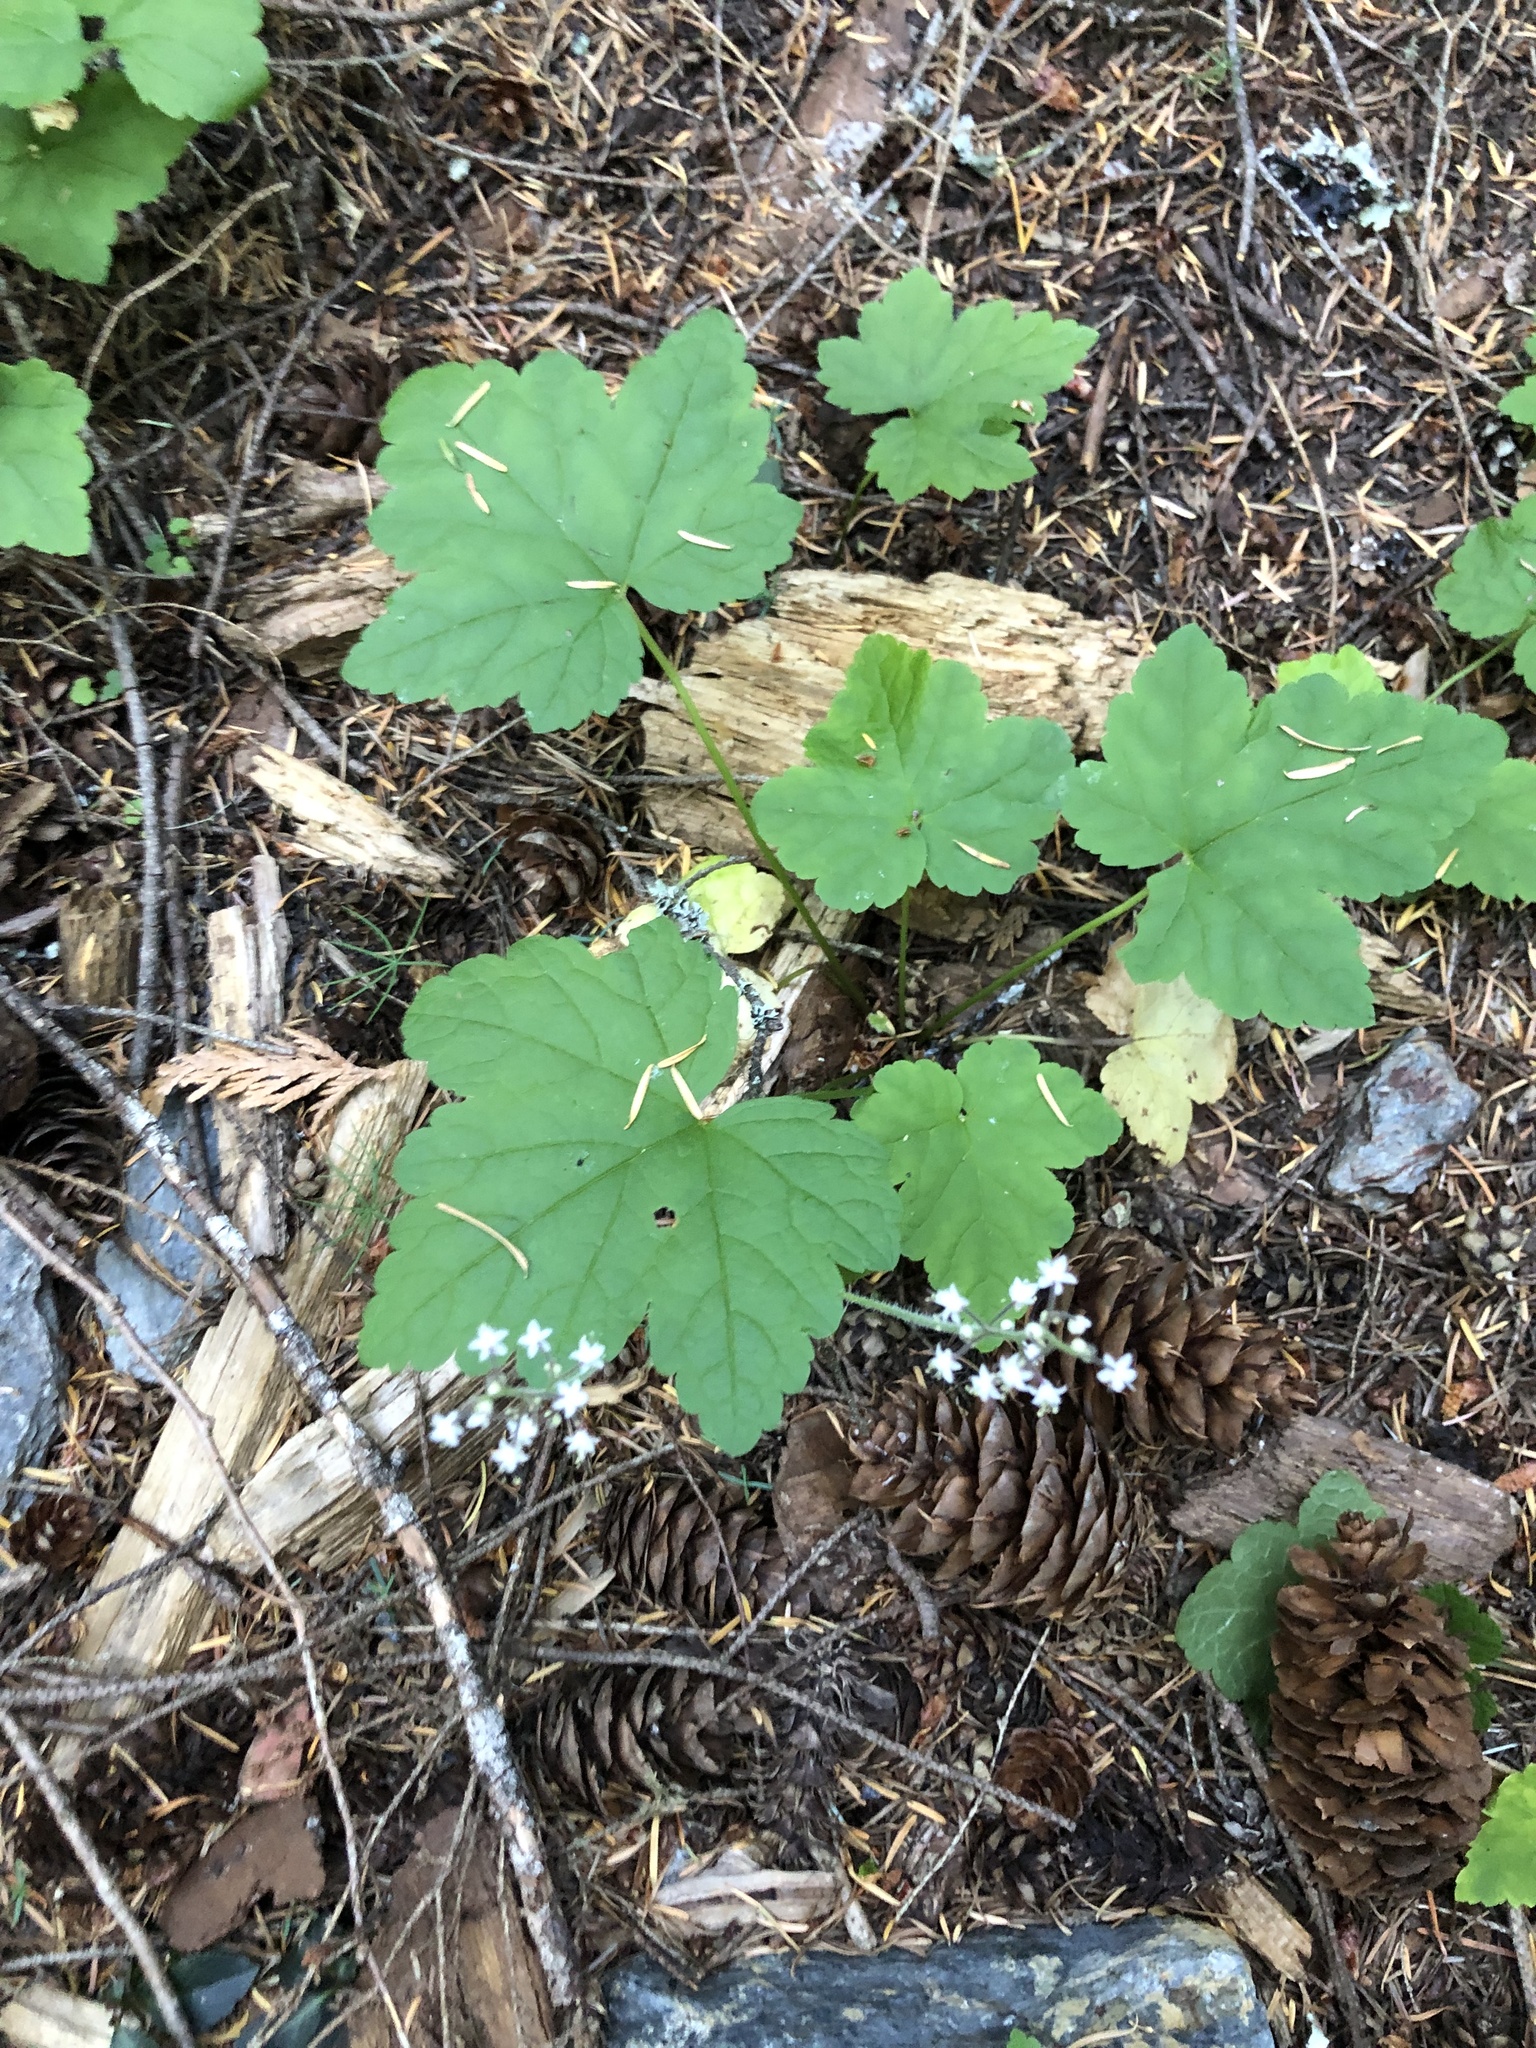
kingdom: Plantae
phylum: Tracheophyta
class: Magnoliopsida
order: Saxifragales
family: Saxifragaceae
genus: Tiarella
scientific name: Tiarella trifoliata
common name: Sugar-scoop
